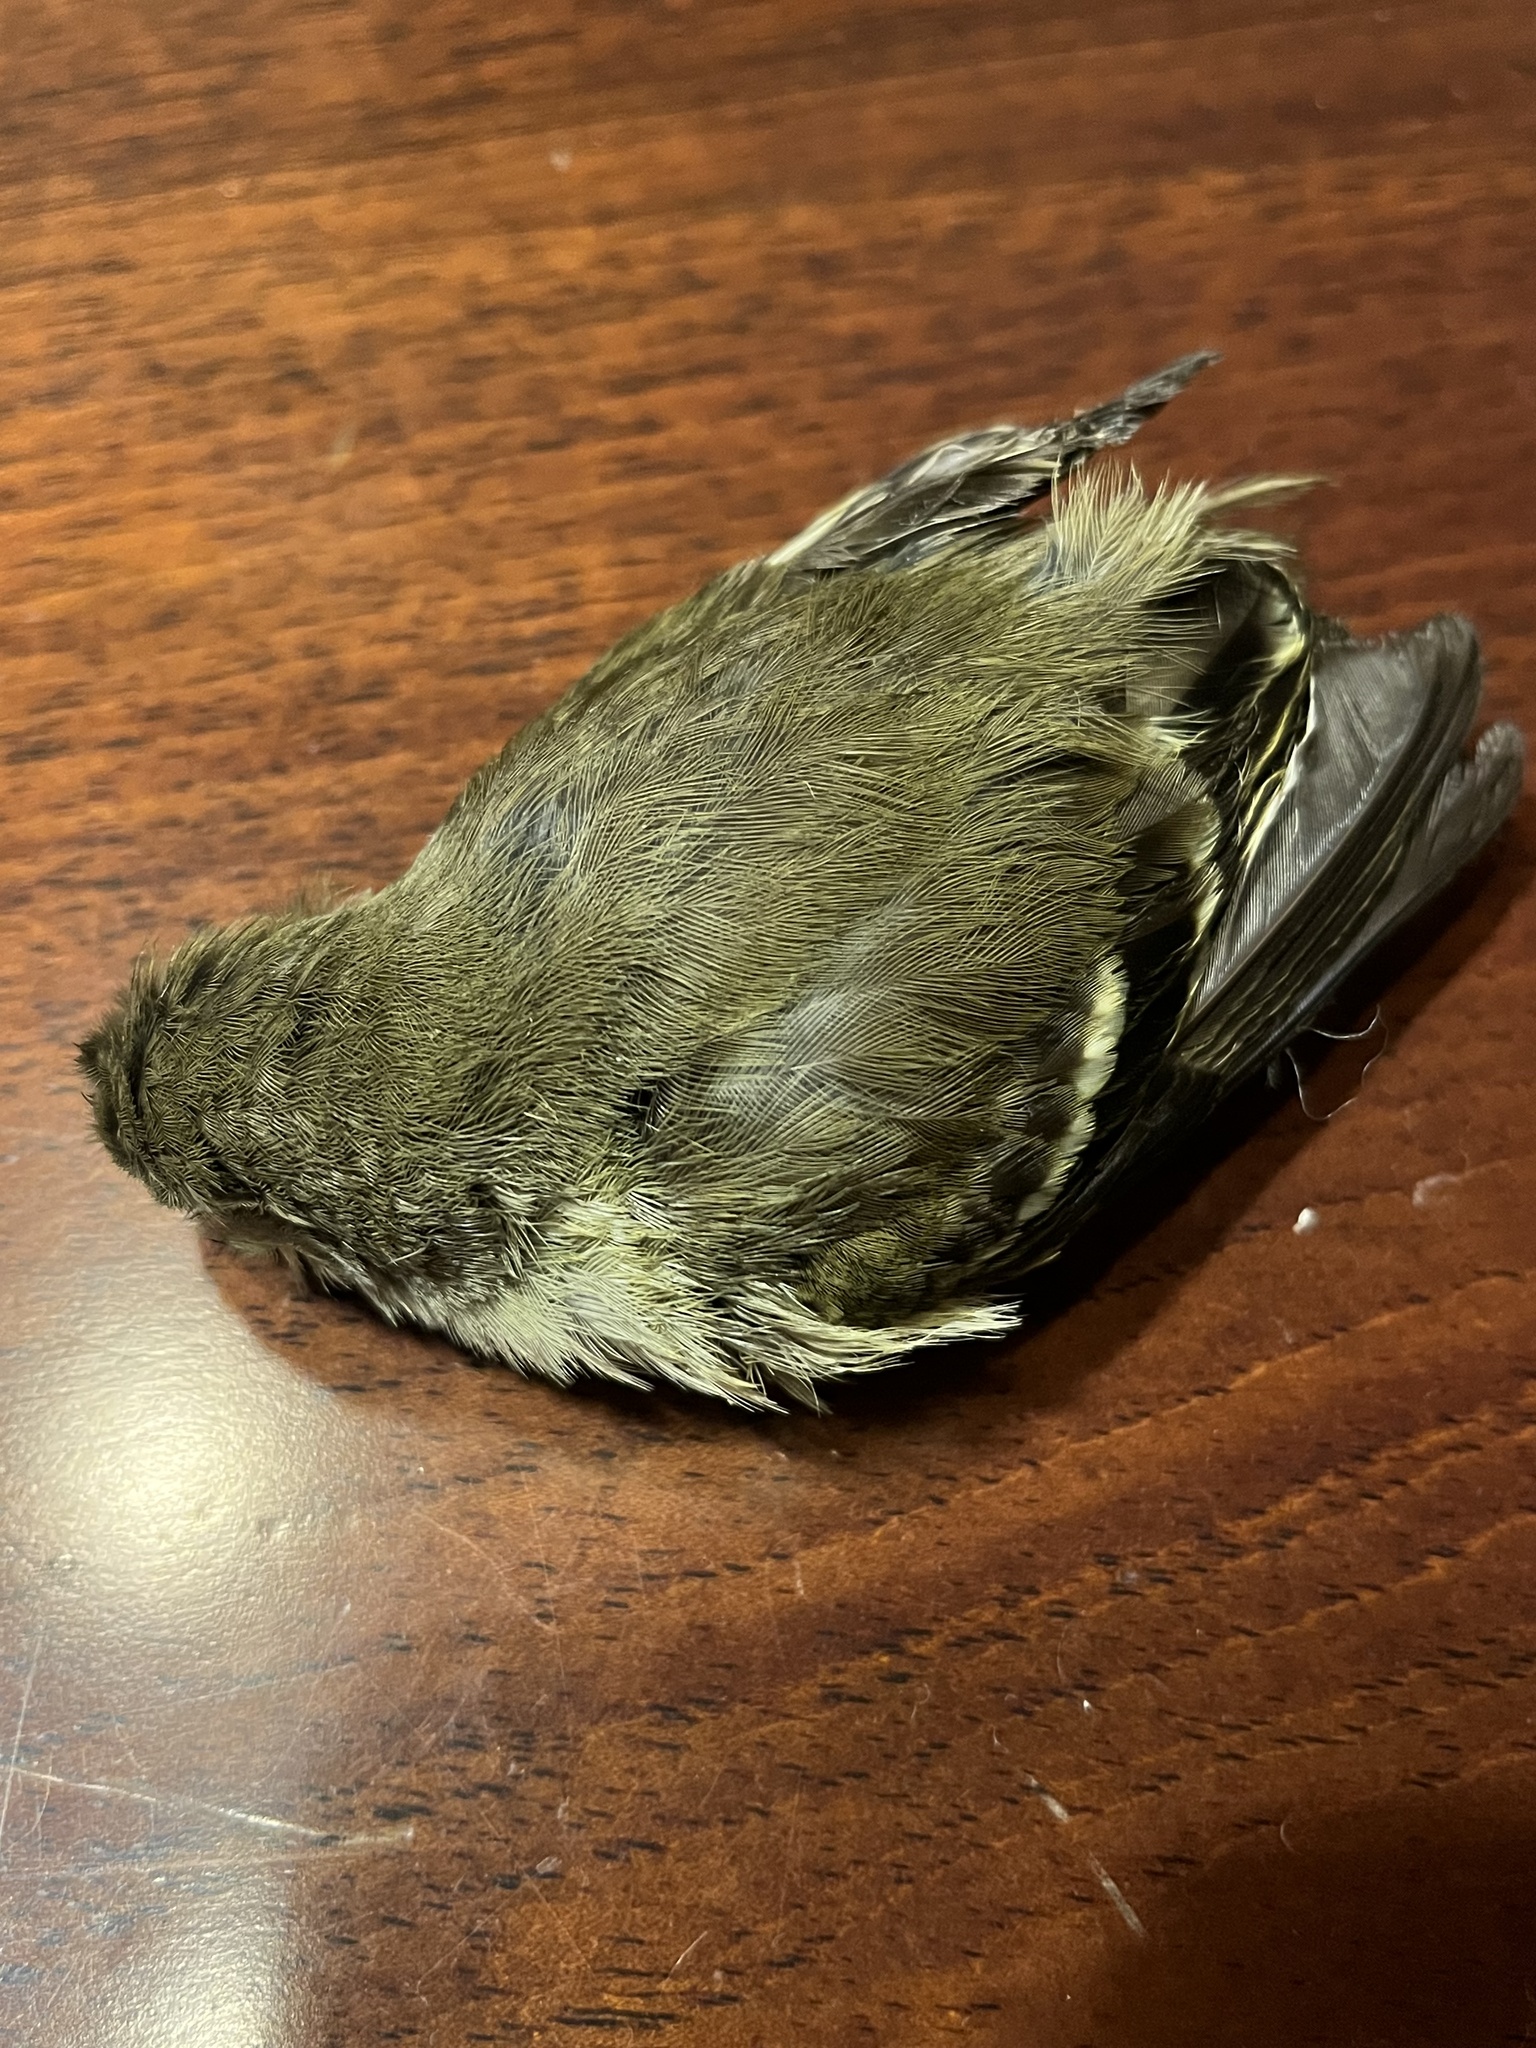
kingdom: Animalia
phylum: Chordata
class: Aves
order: Passeriformes
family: Tyrannidae
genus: Elaenia
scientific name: Elaenia frantzii
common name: Mountain elaenia
